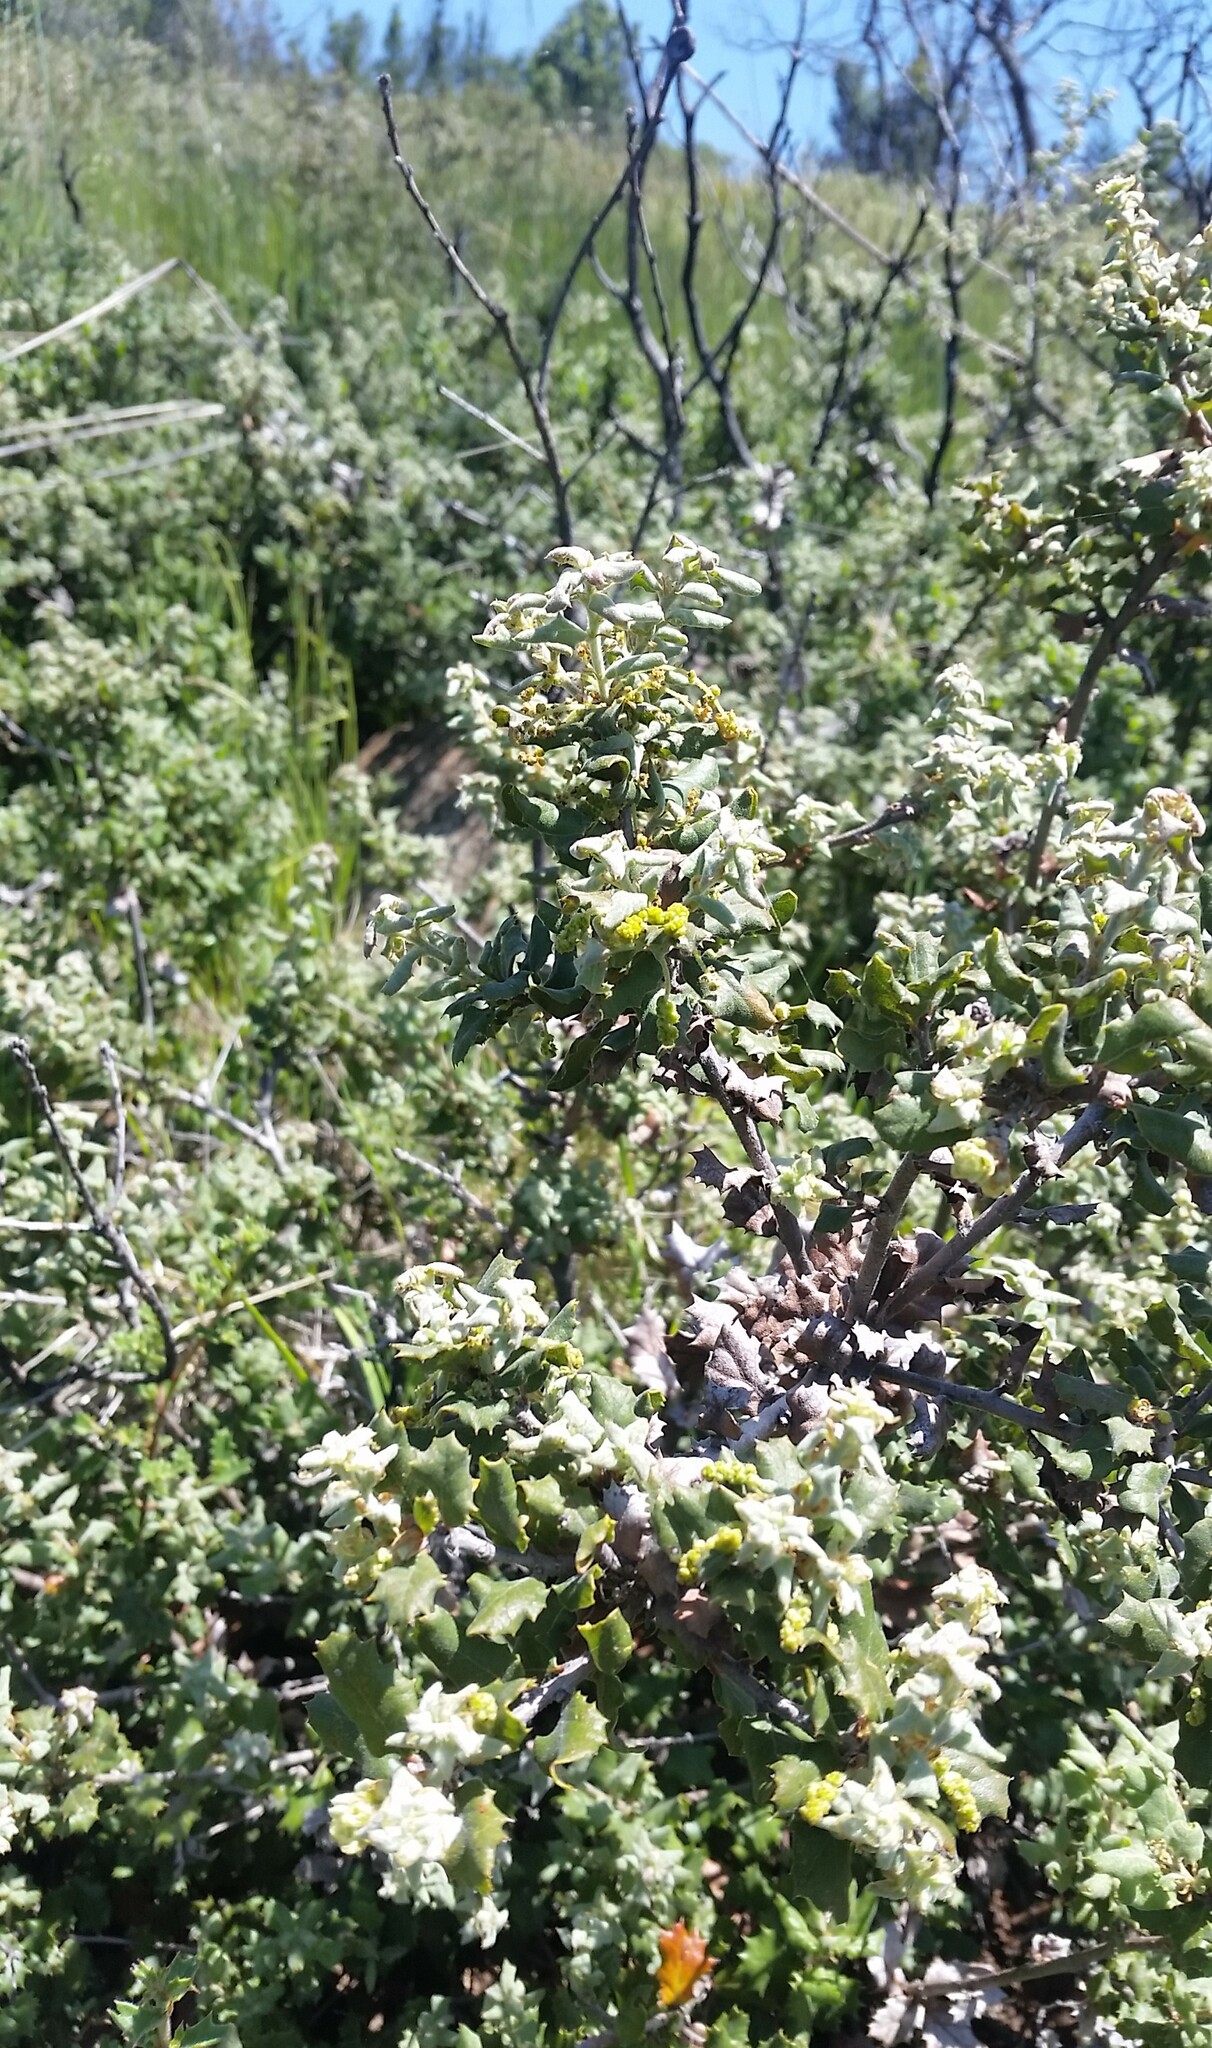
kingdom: Plantae
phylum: Tracheophyta
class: Magnoliopsida
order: Fagales
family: Fagaceae
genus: Quercus
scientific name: Quercus durata
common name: Leather oak
